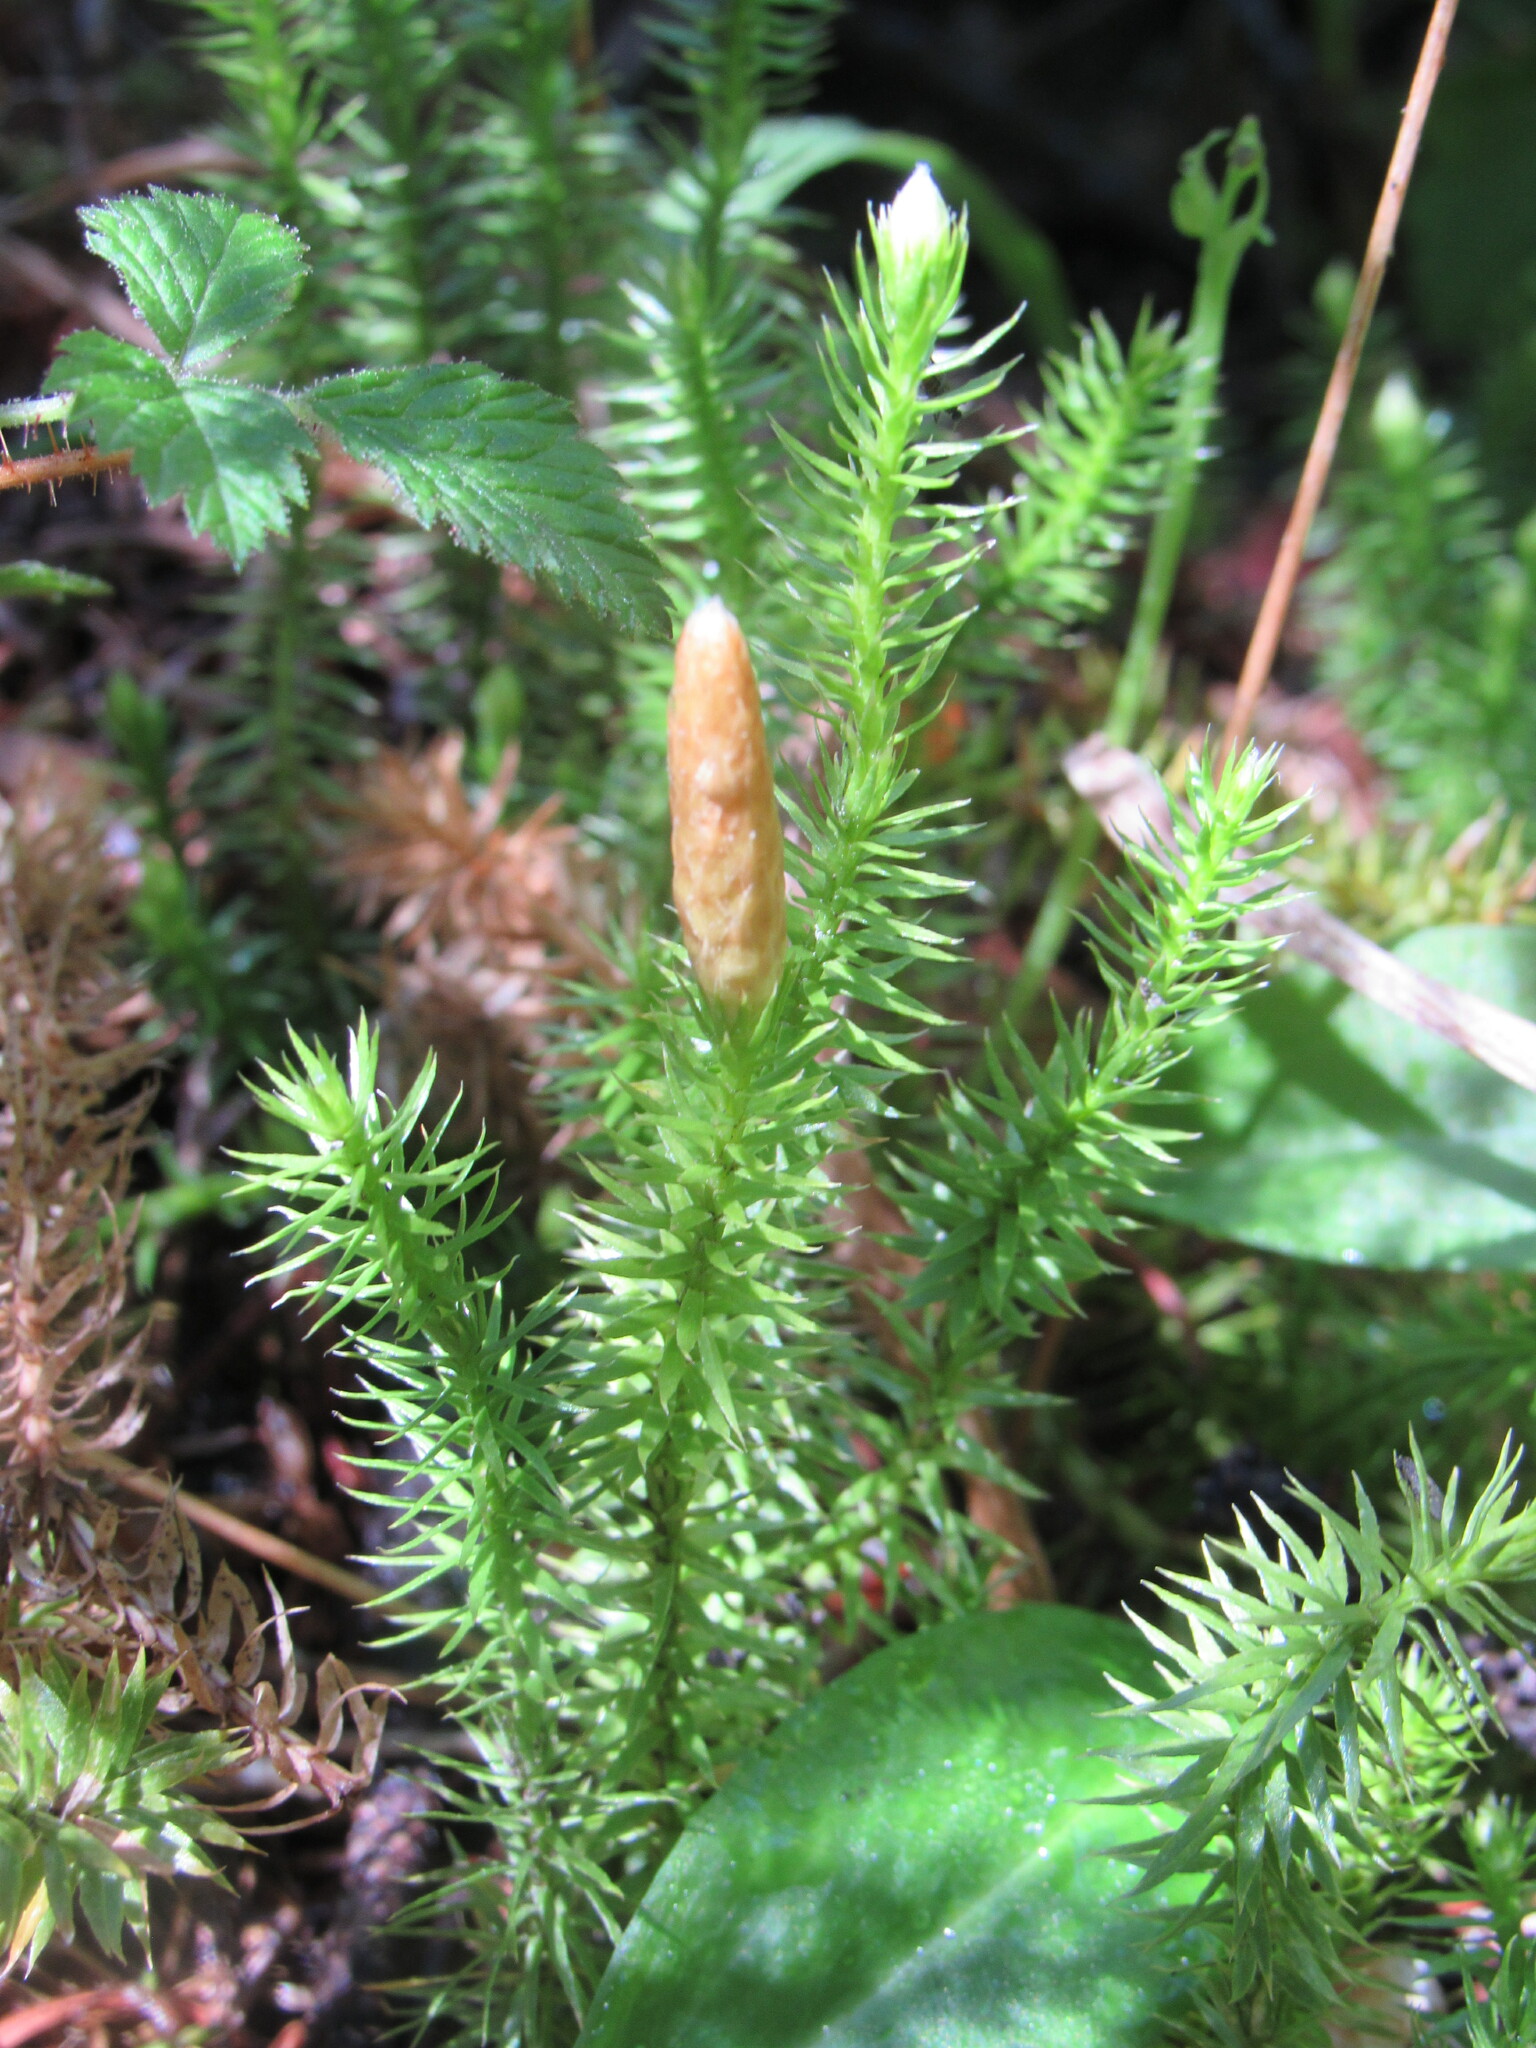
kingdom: Plantae
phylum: Tracheophyta
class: Lycopodiopsida
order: Lycopodiales
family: Lycopodiaceae
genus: Spinulum
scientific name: Spinulum annotinum
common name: Interrupted club-moss
